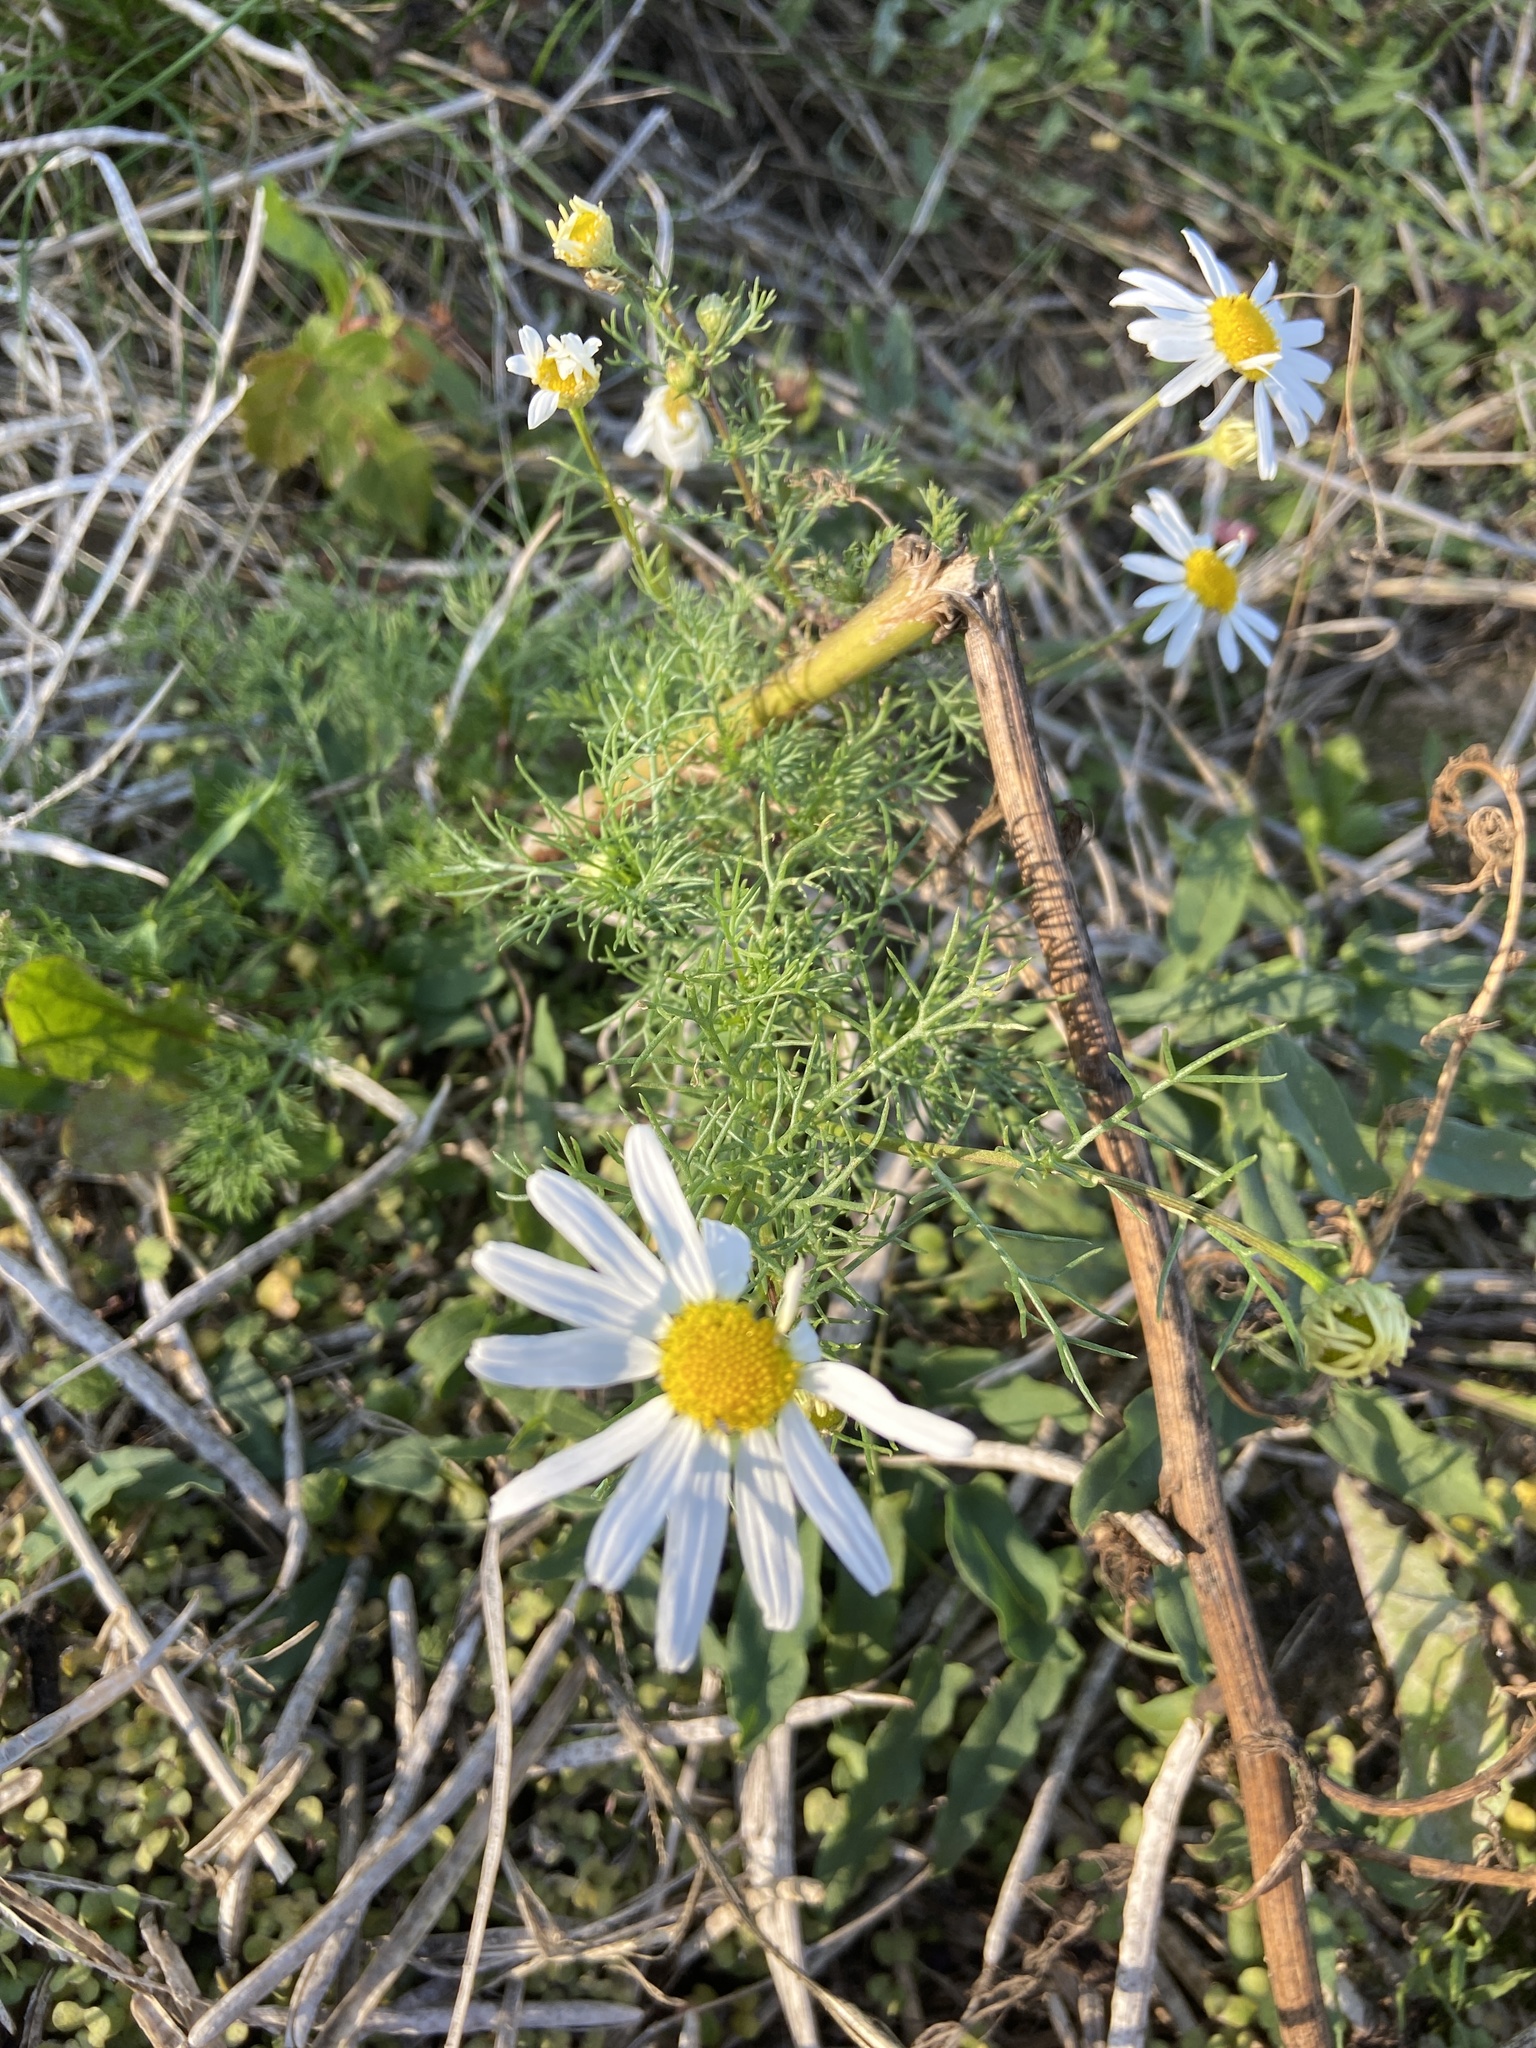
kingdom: Plantae
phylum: Tracheophyta
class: Magnoliopsida
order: Asterales
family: Asteraceae
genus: Tripleurospermum
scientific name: Tripleurospermum inodorum
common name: Scentless mayweed
